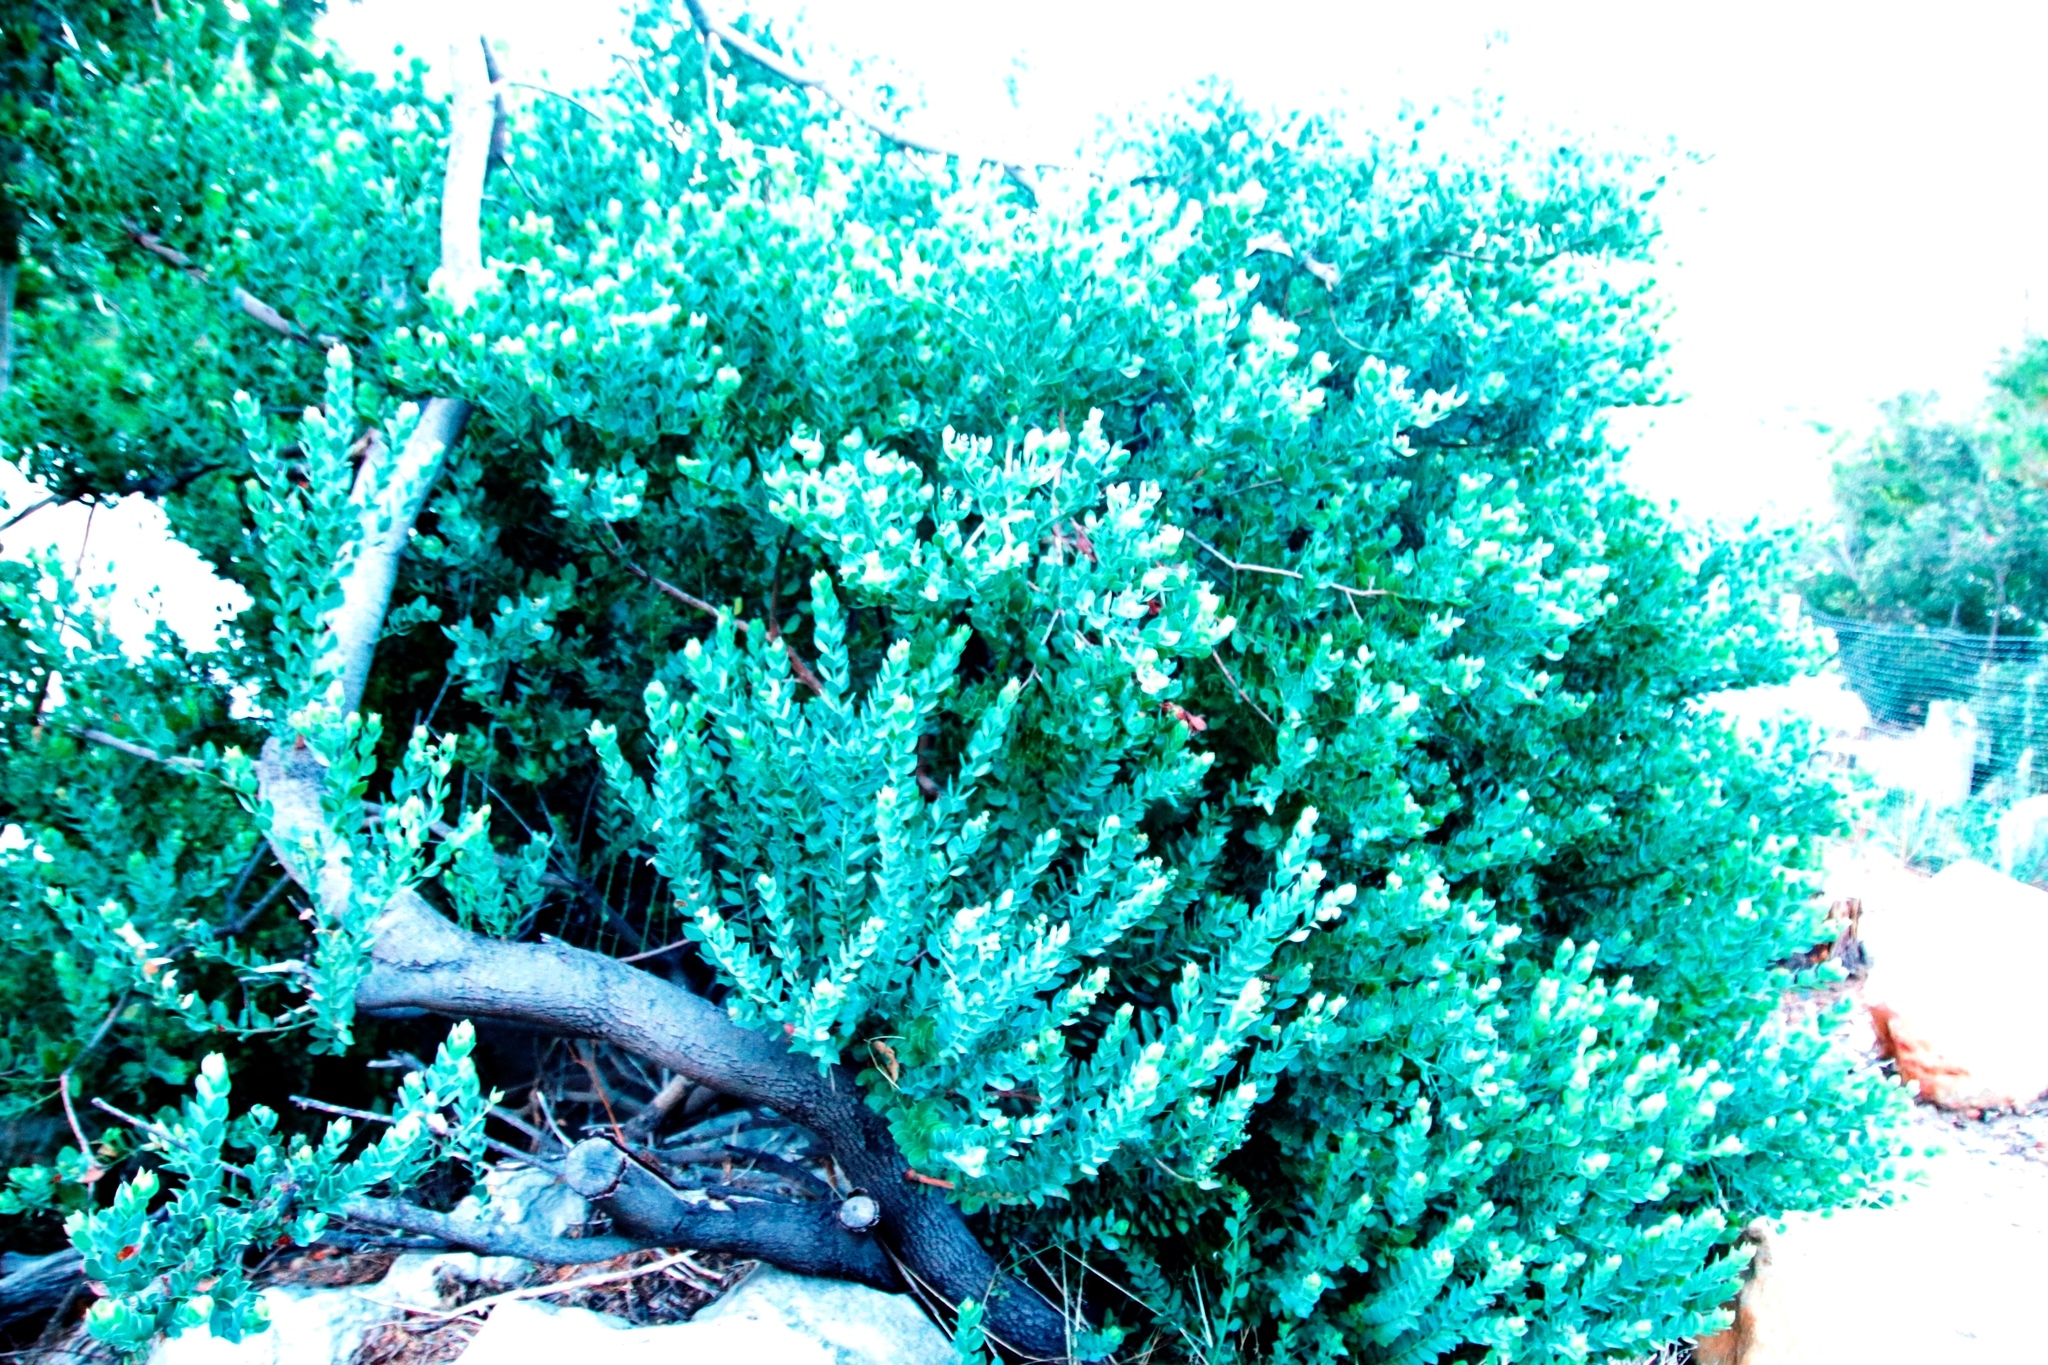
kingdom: Plantae
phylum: Tracheophyta
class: Magnoliopsida
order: Santalales
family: Santalaceae
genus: Osyris
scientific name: Osyris compressa
